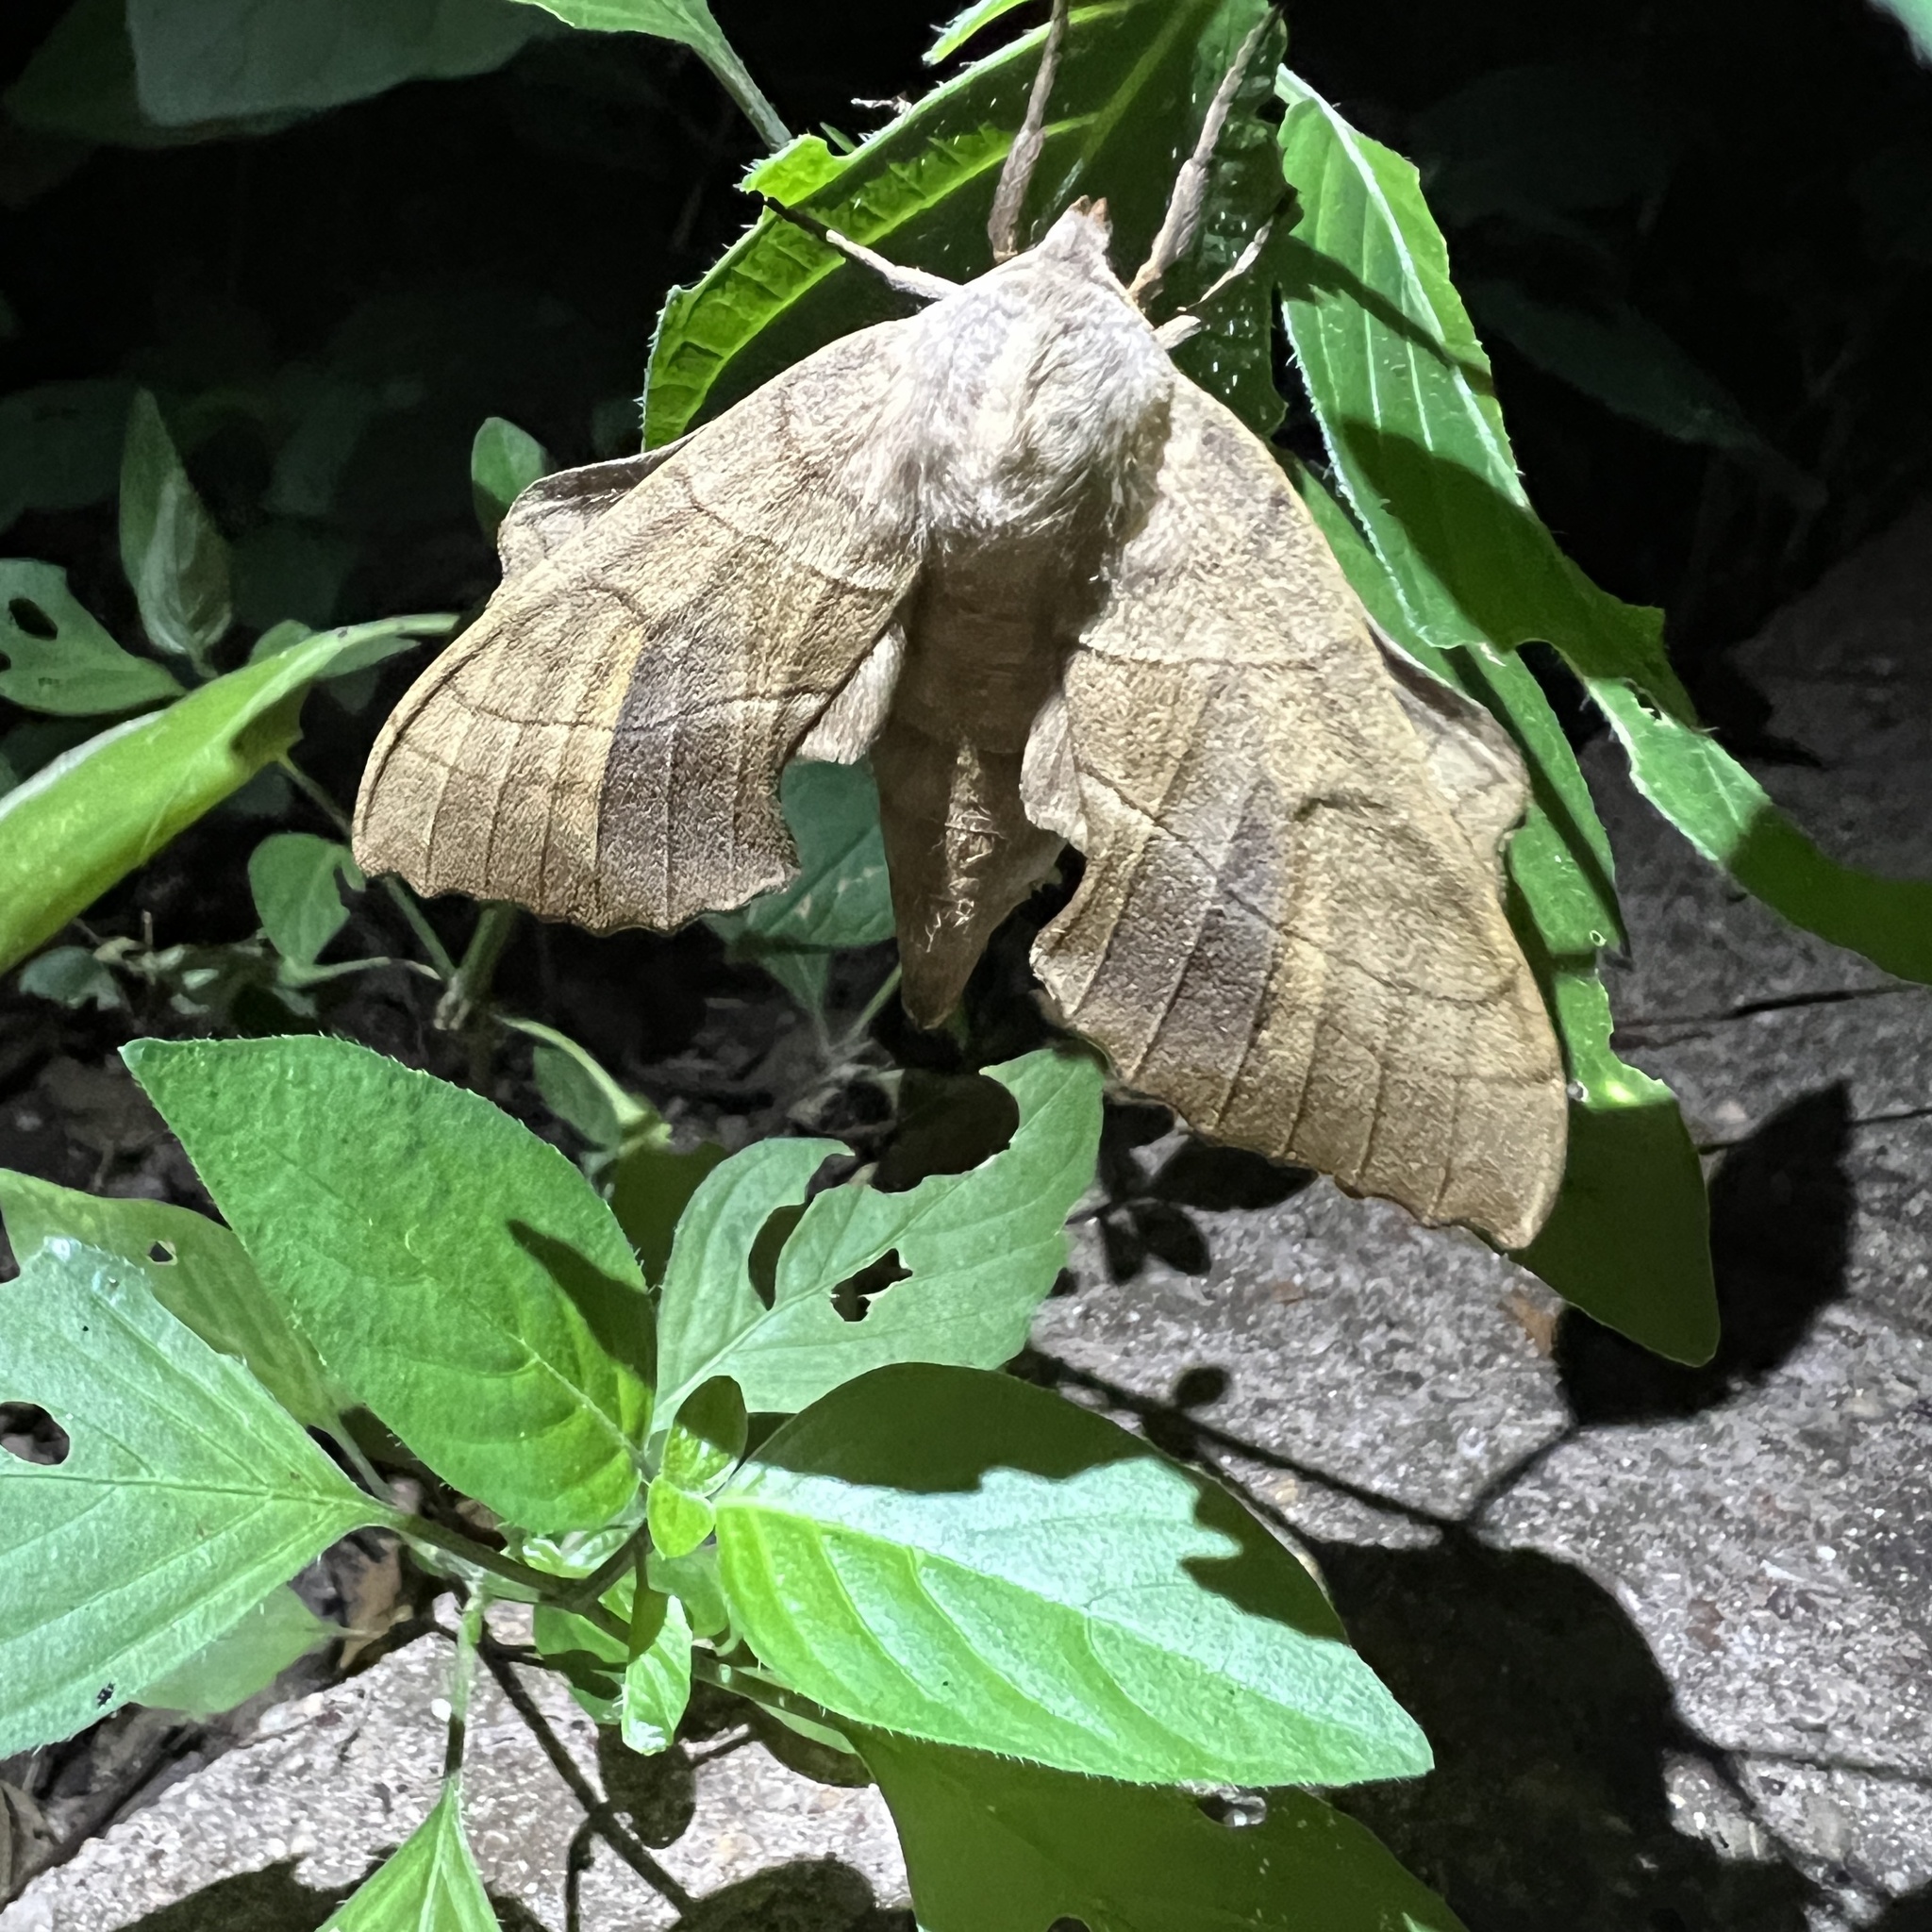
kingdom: Animalia
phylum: Arthropoda
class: Insecta
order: Lepidoptera
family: Sphingidae
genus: Amorpha
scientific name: Amorpha juglandis
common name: Walnut sphinx
